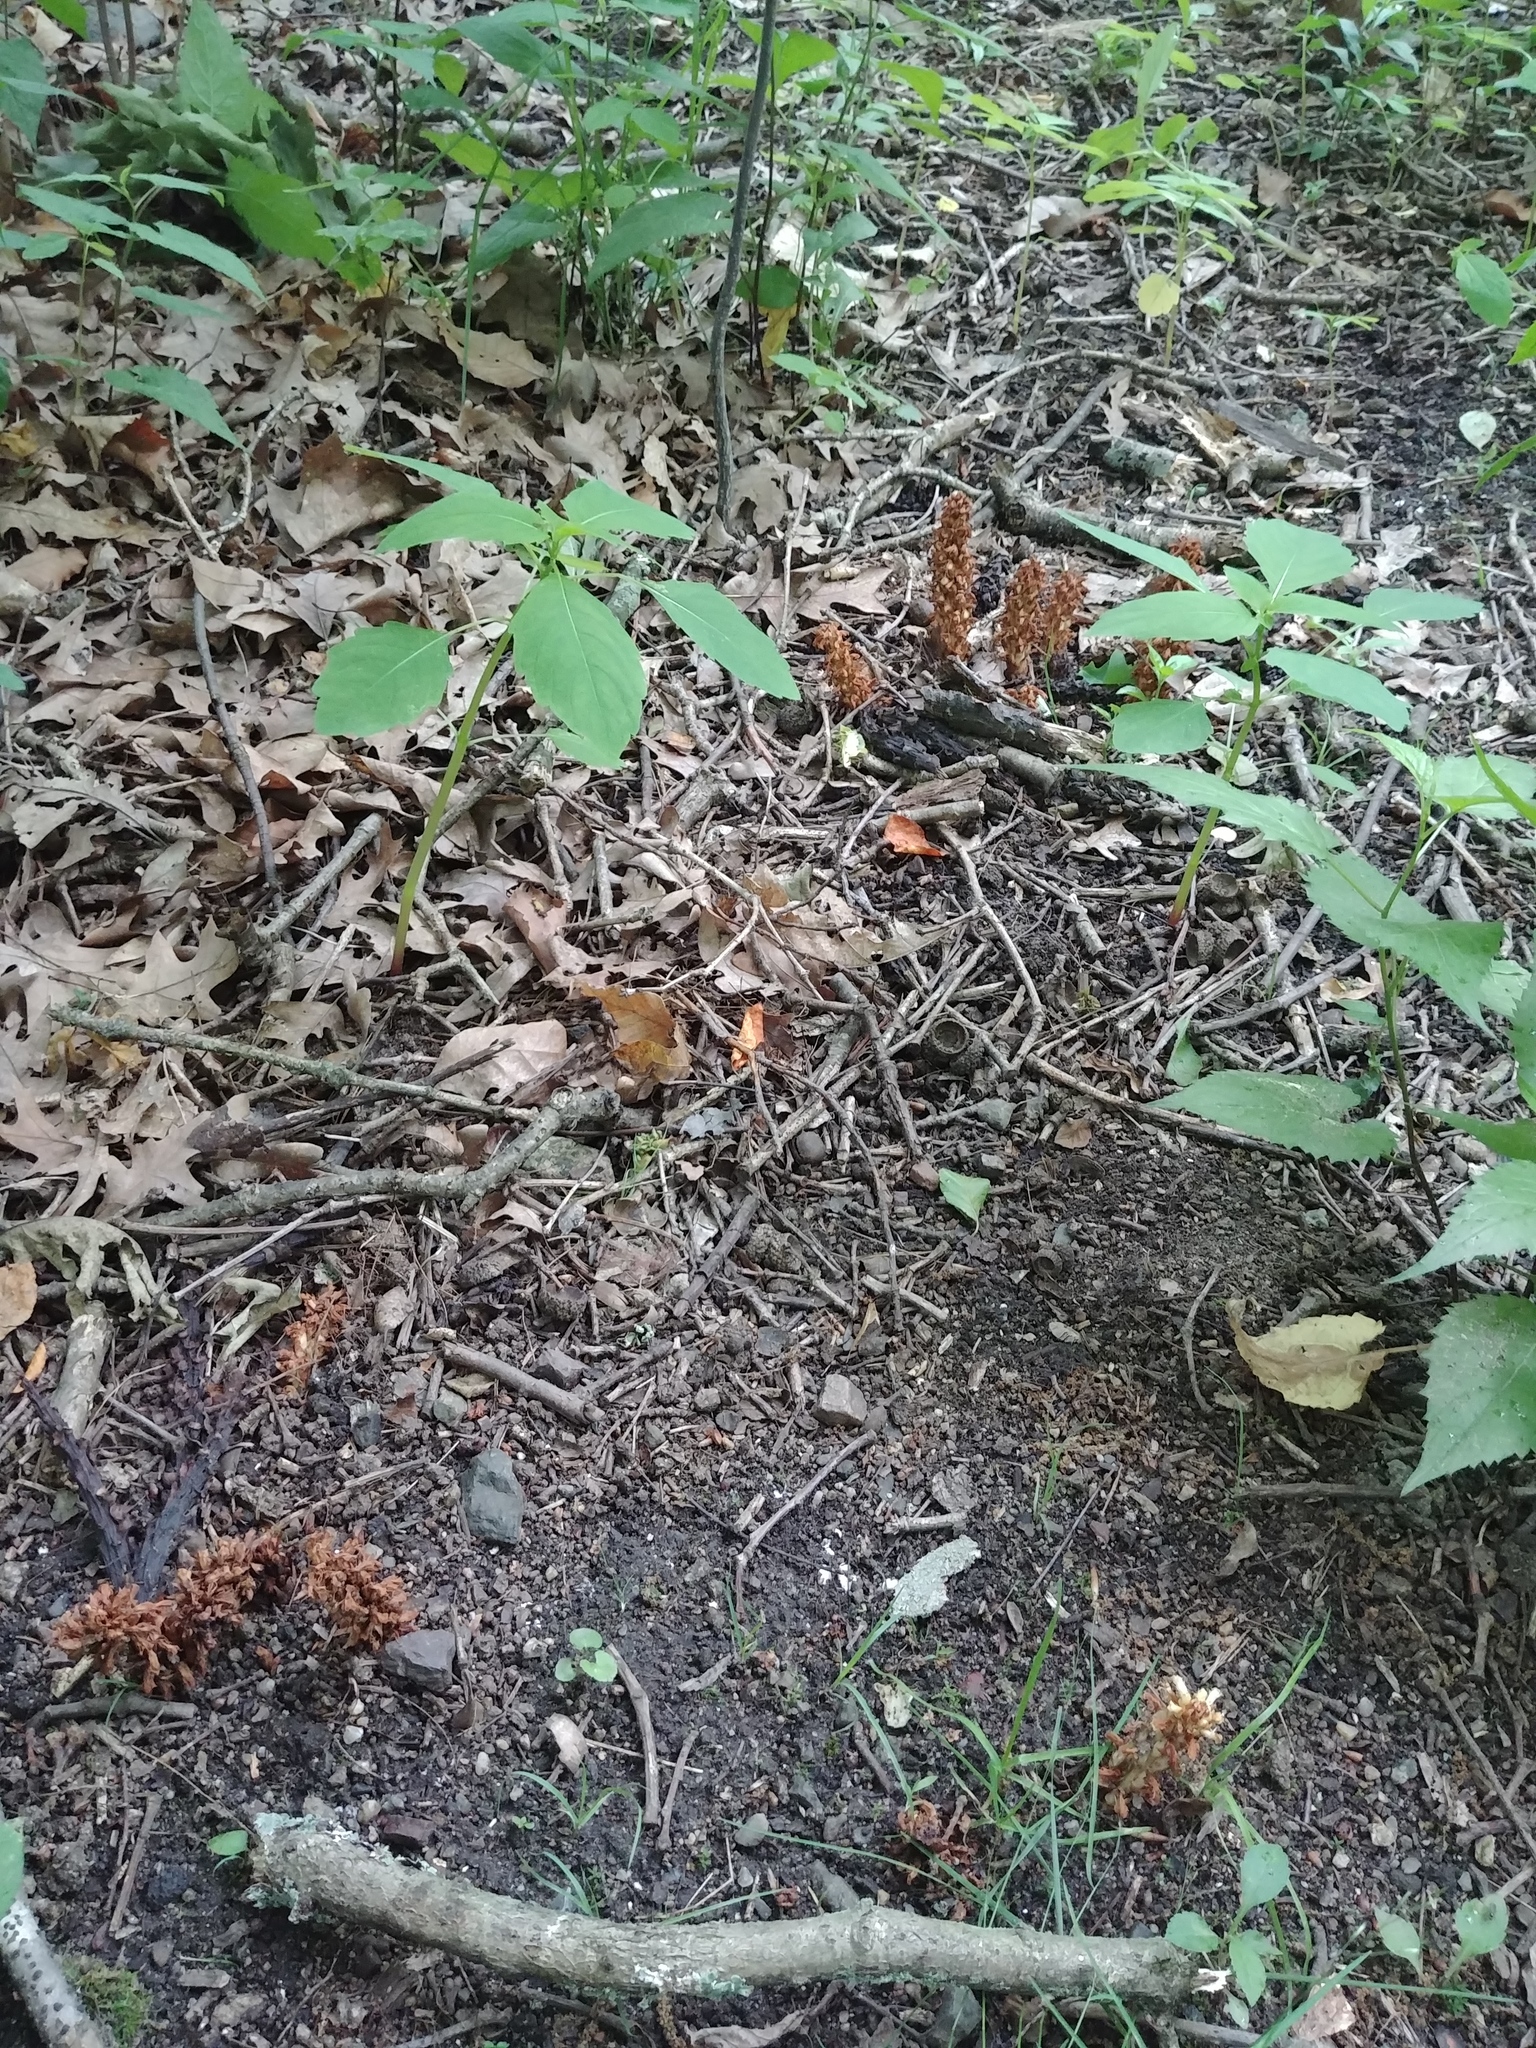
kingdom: Plantae
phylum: Tracheophyta
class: Magnoliopsida
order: Lamiales
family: Orobanchaceae
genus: Conopholis
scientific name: Conopholis americana
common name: American cancer-root
